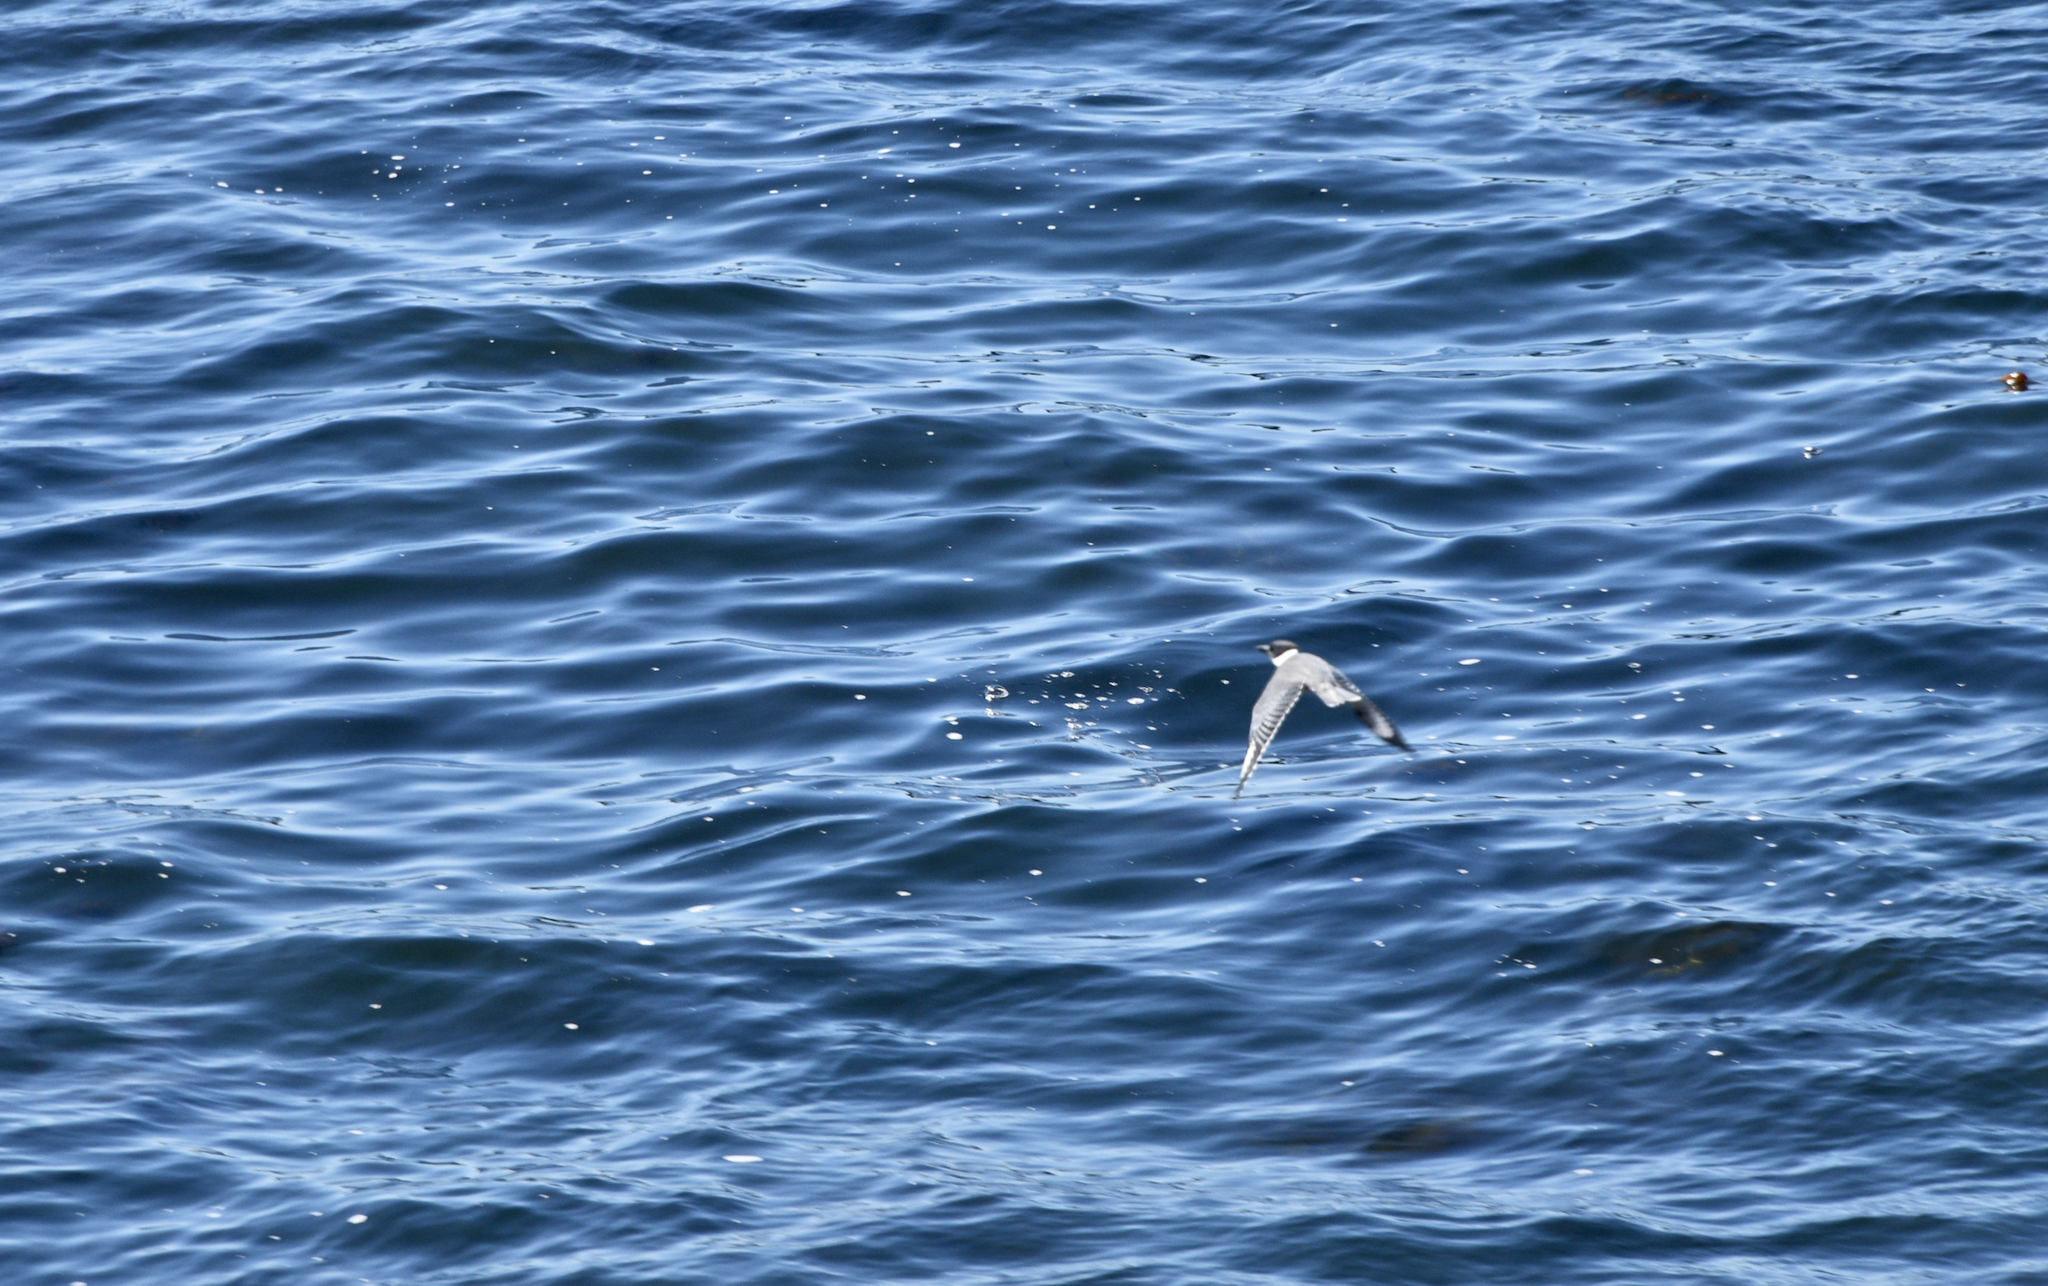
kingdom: Animalia
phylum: Chordata
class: Aves
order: Coraciiformes
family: Alcedinidae
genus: Megaceryle
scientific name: Megaceryle alcyon
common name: Belted kingfisher
